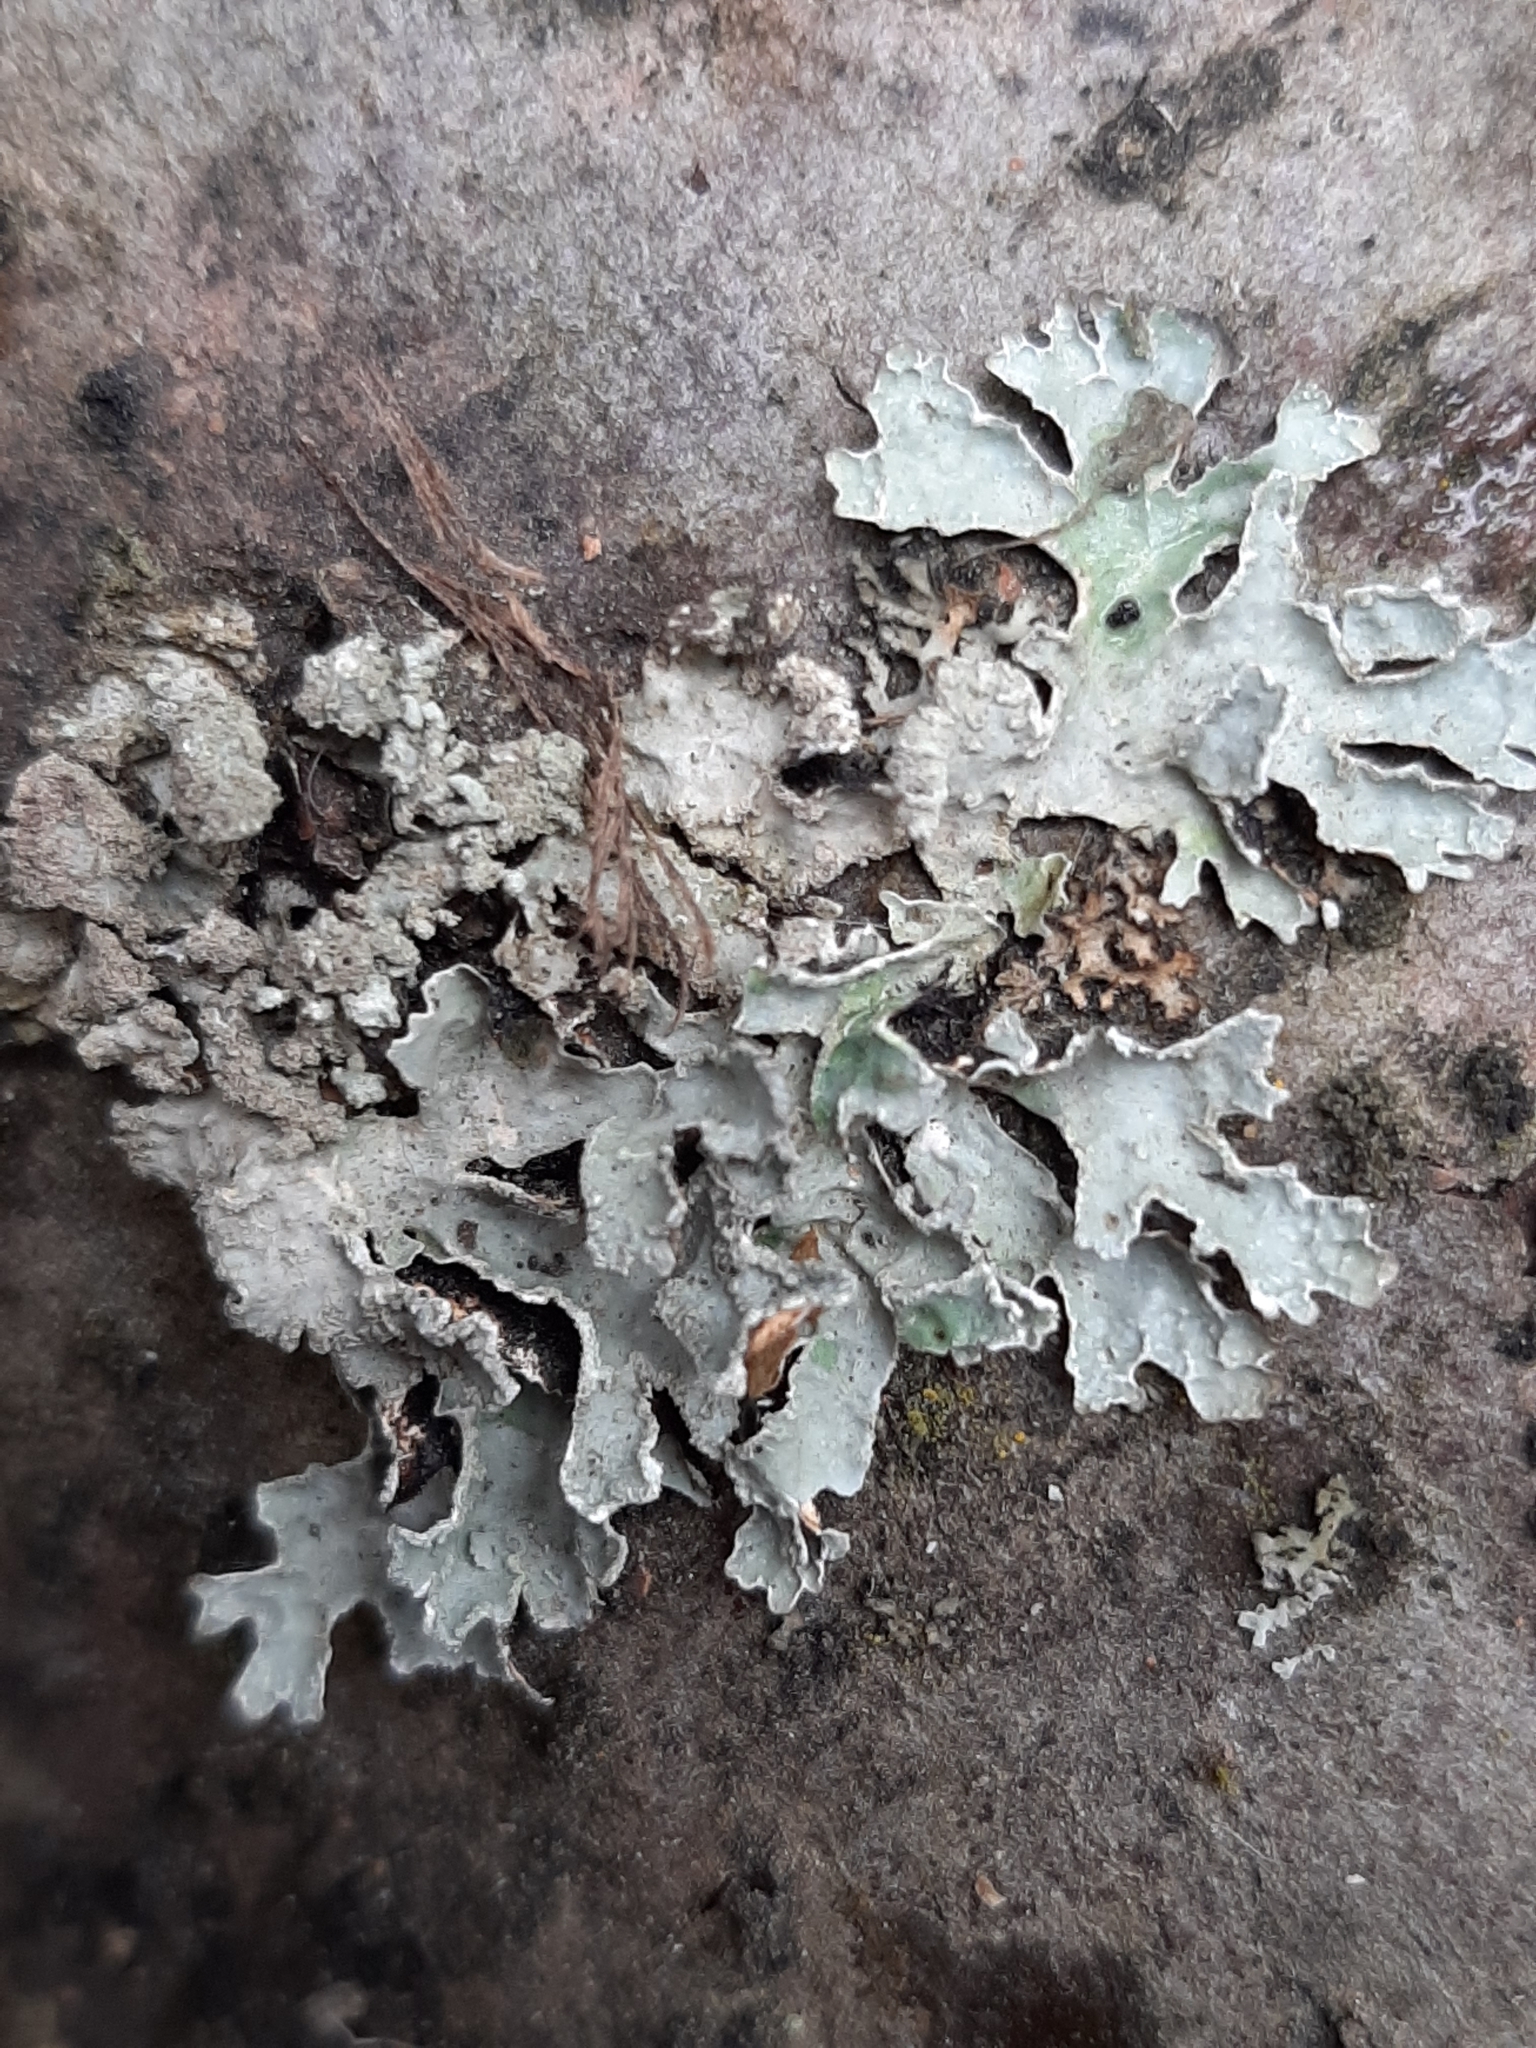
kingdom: Fungi
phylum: Ascomycota
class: Lecanoromycetes
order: Lecanorales
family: Parmeliaceae
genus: Parmelia
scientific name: Parmelia sulcata
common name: Netted shield lichen
